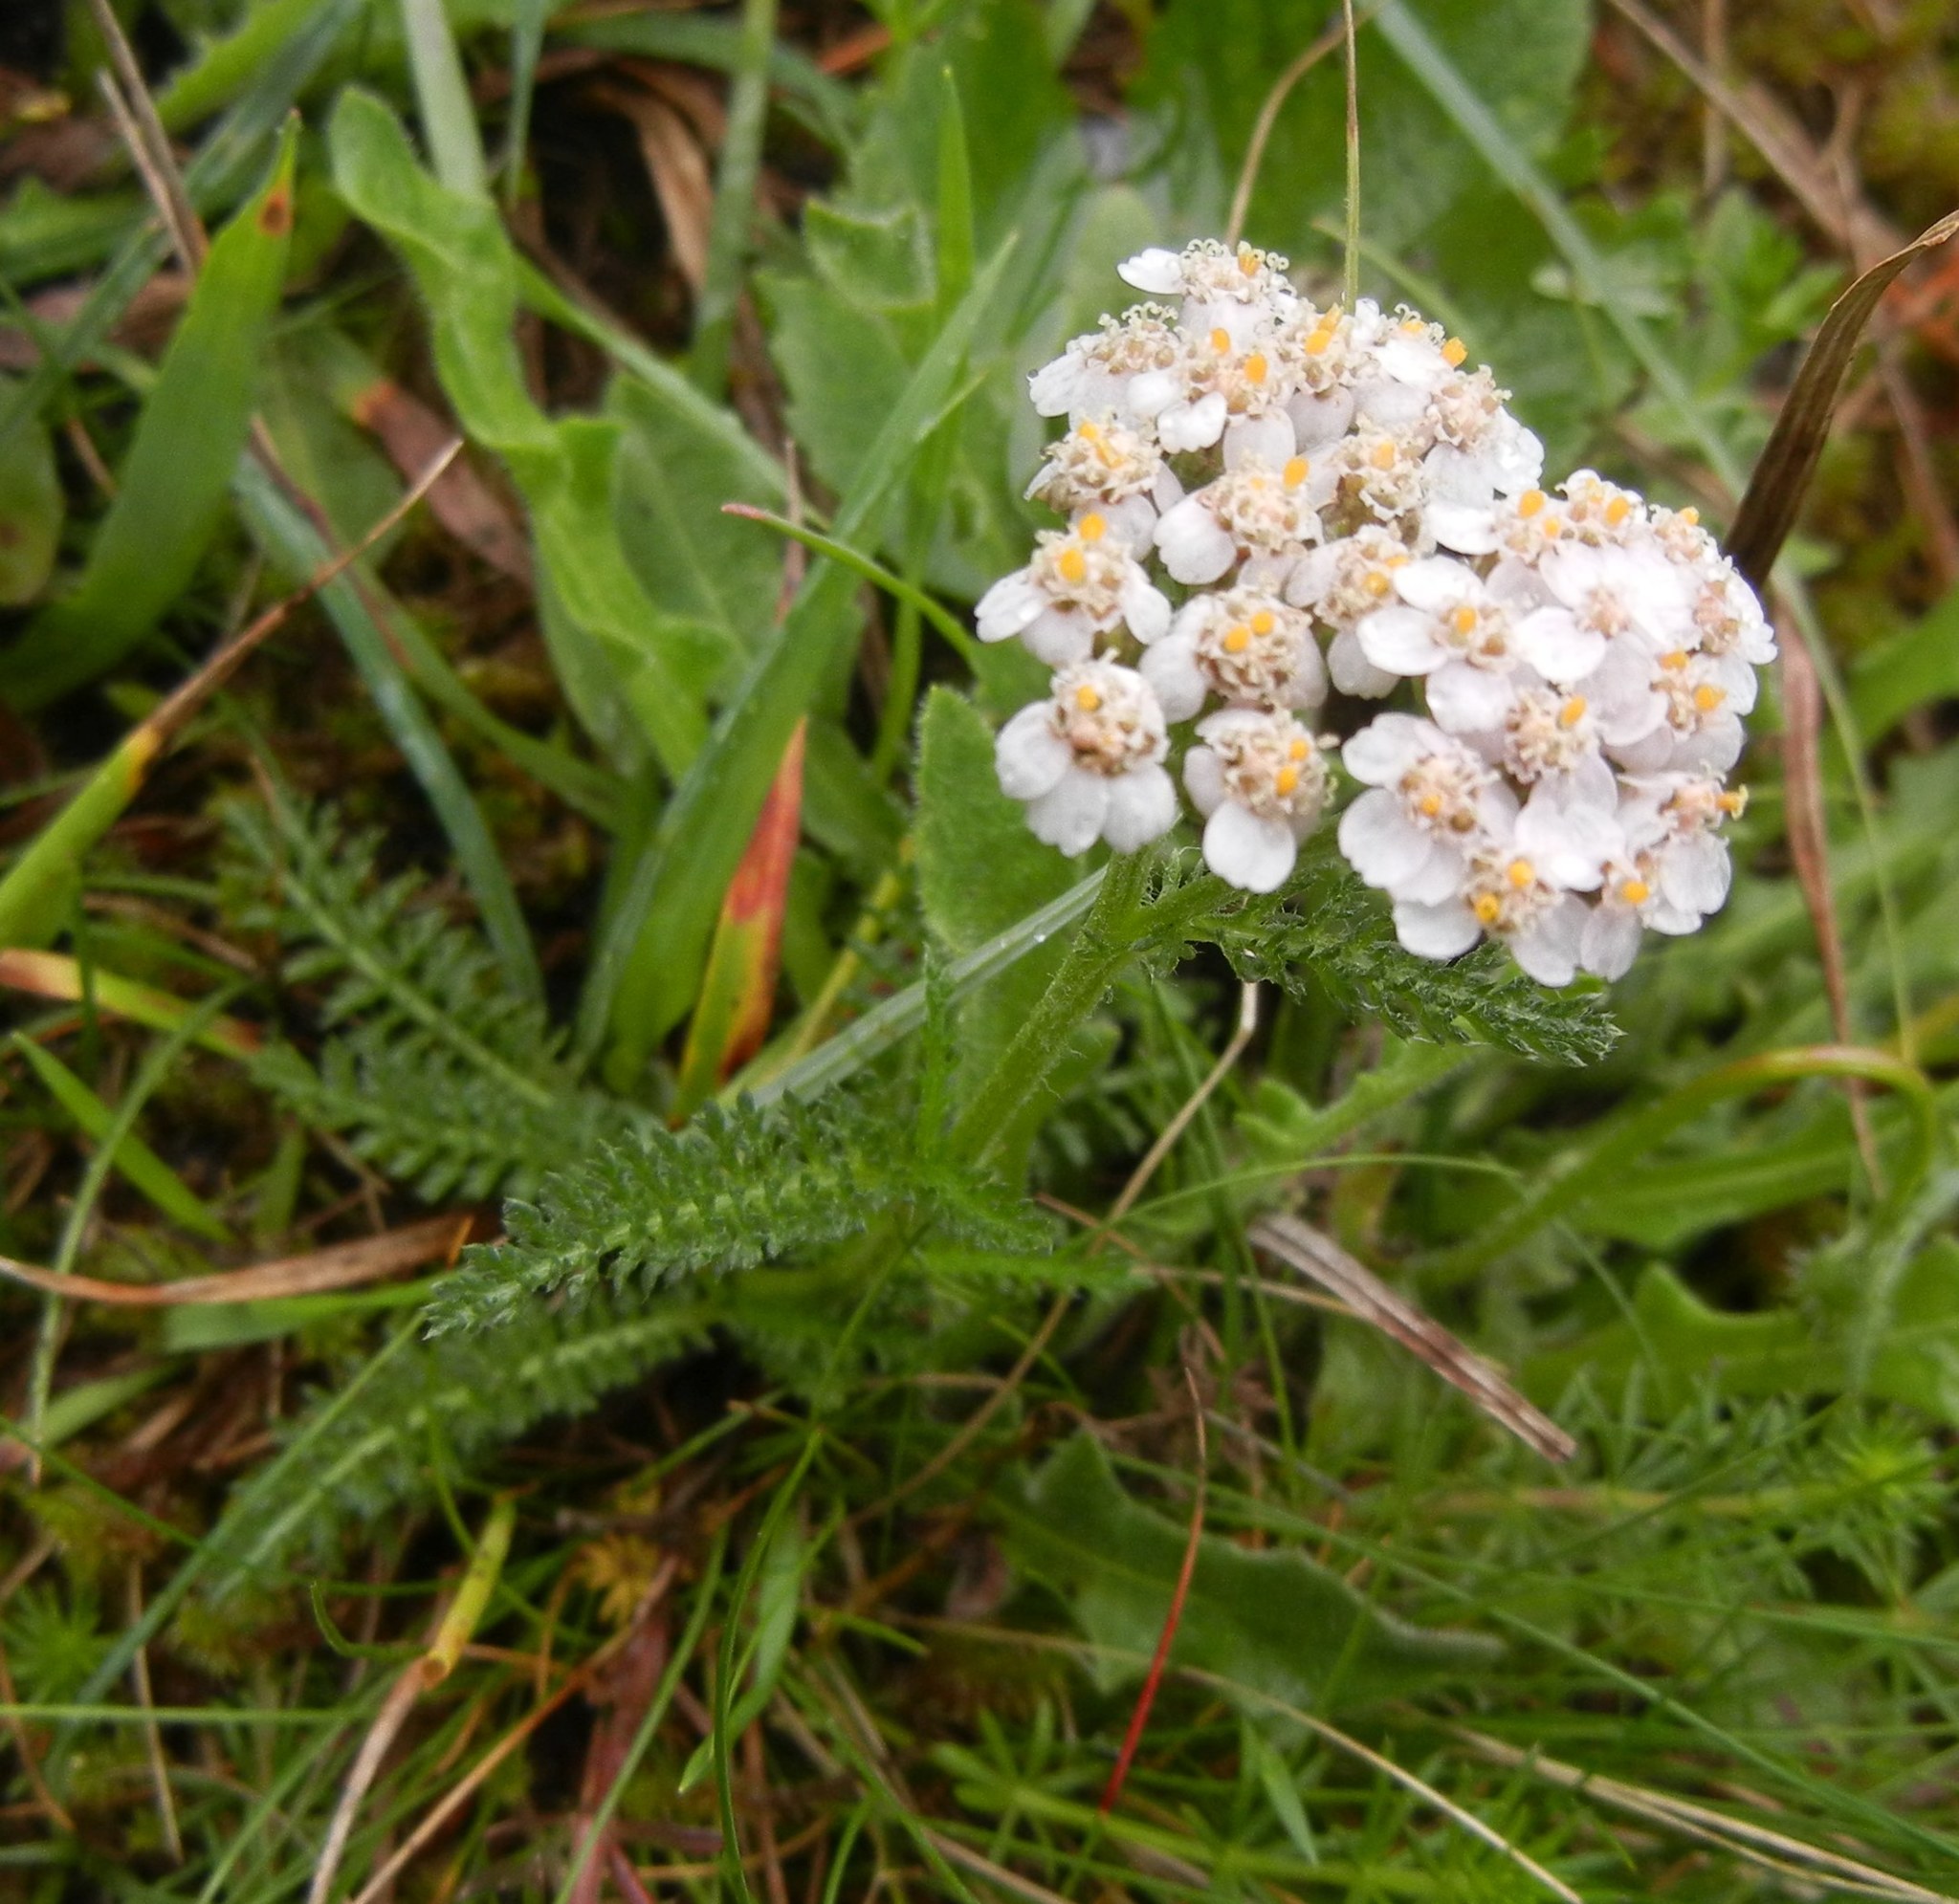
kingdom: Plantae
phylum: Tracheophyta
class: Magnoliopsida
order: Asterales
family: Asteraceae
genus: Achillea
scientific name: Achillea millefolium
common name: Yarrow
